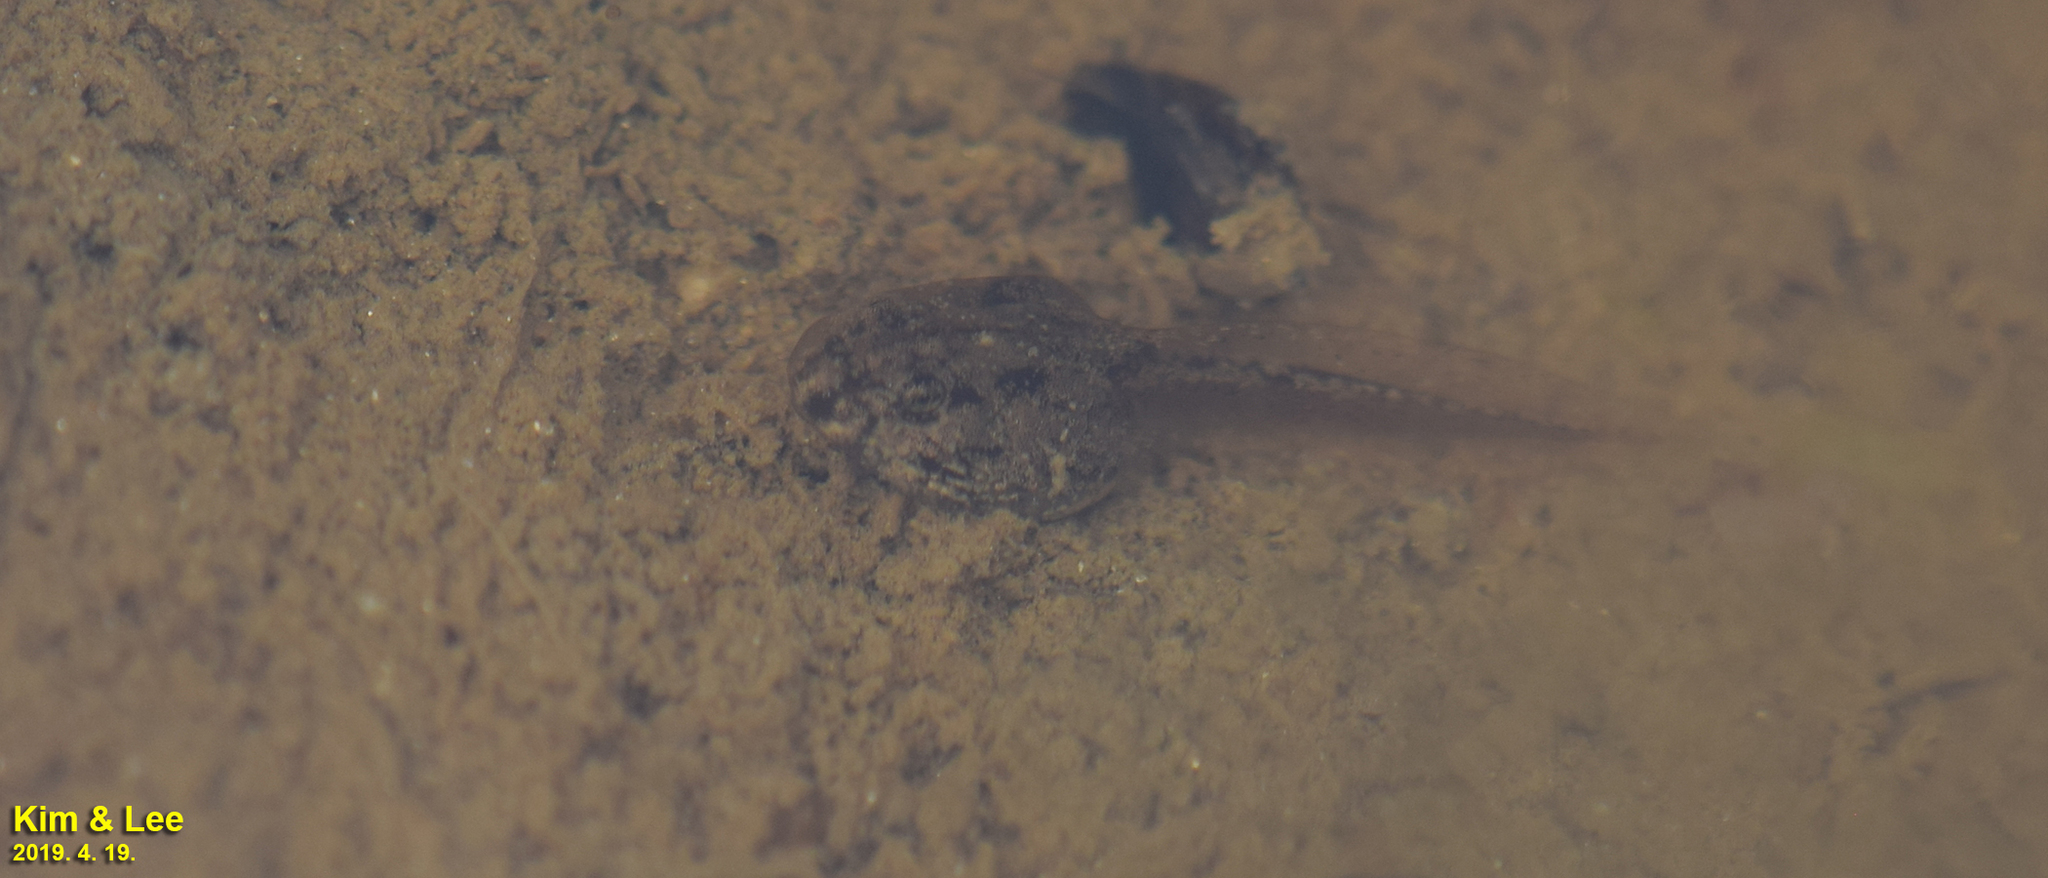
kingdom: Animalia
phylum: Chordata
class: Amphibia
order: Anura
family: Ranidae
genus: Rana
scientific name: Rana coreana
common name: Korean brown frog
